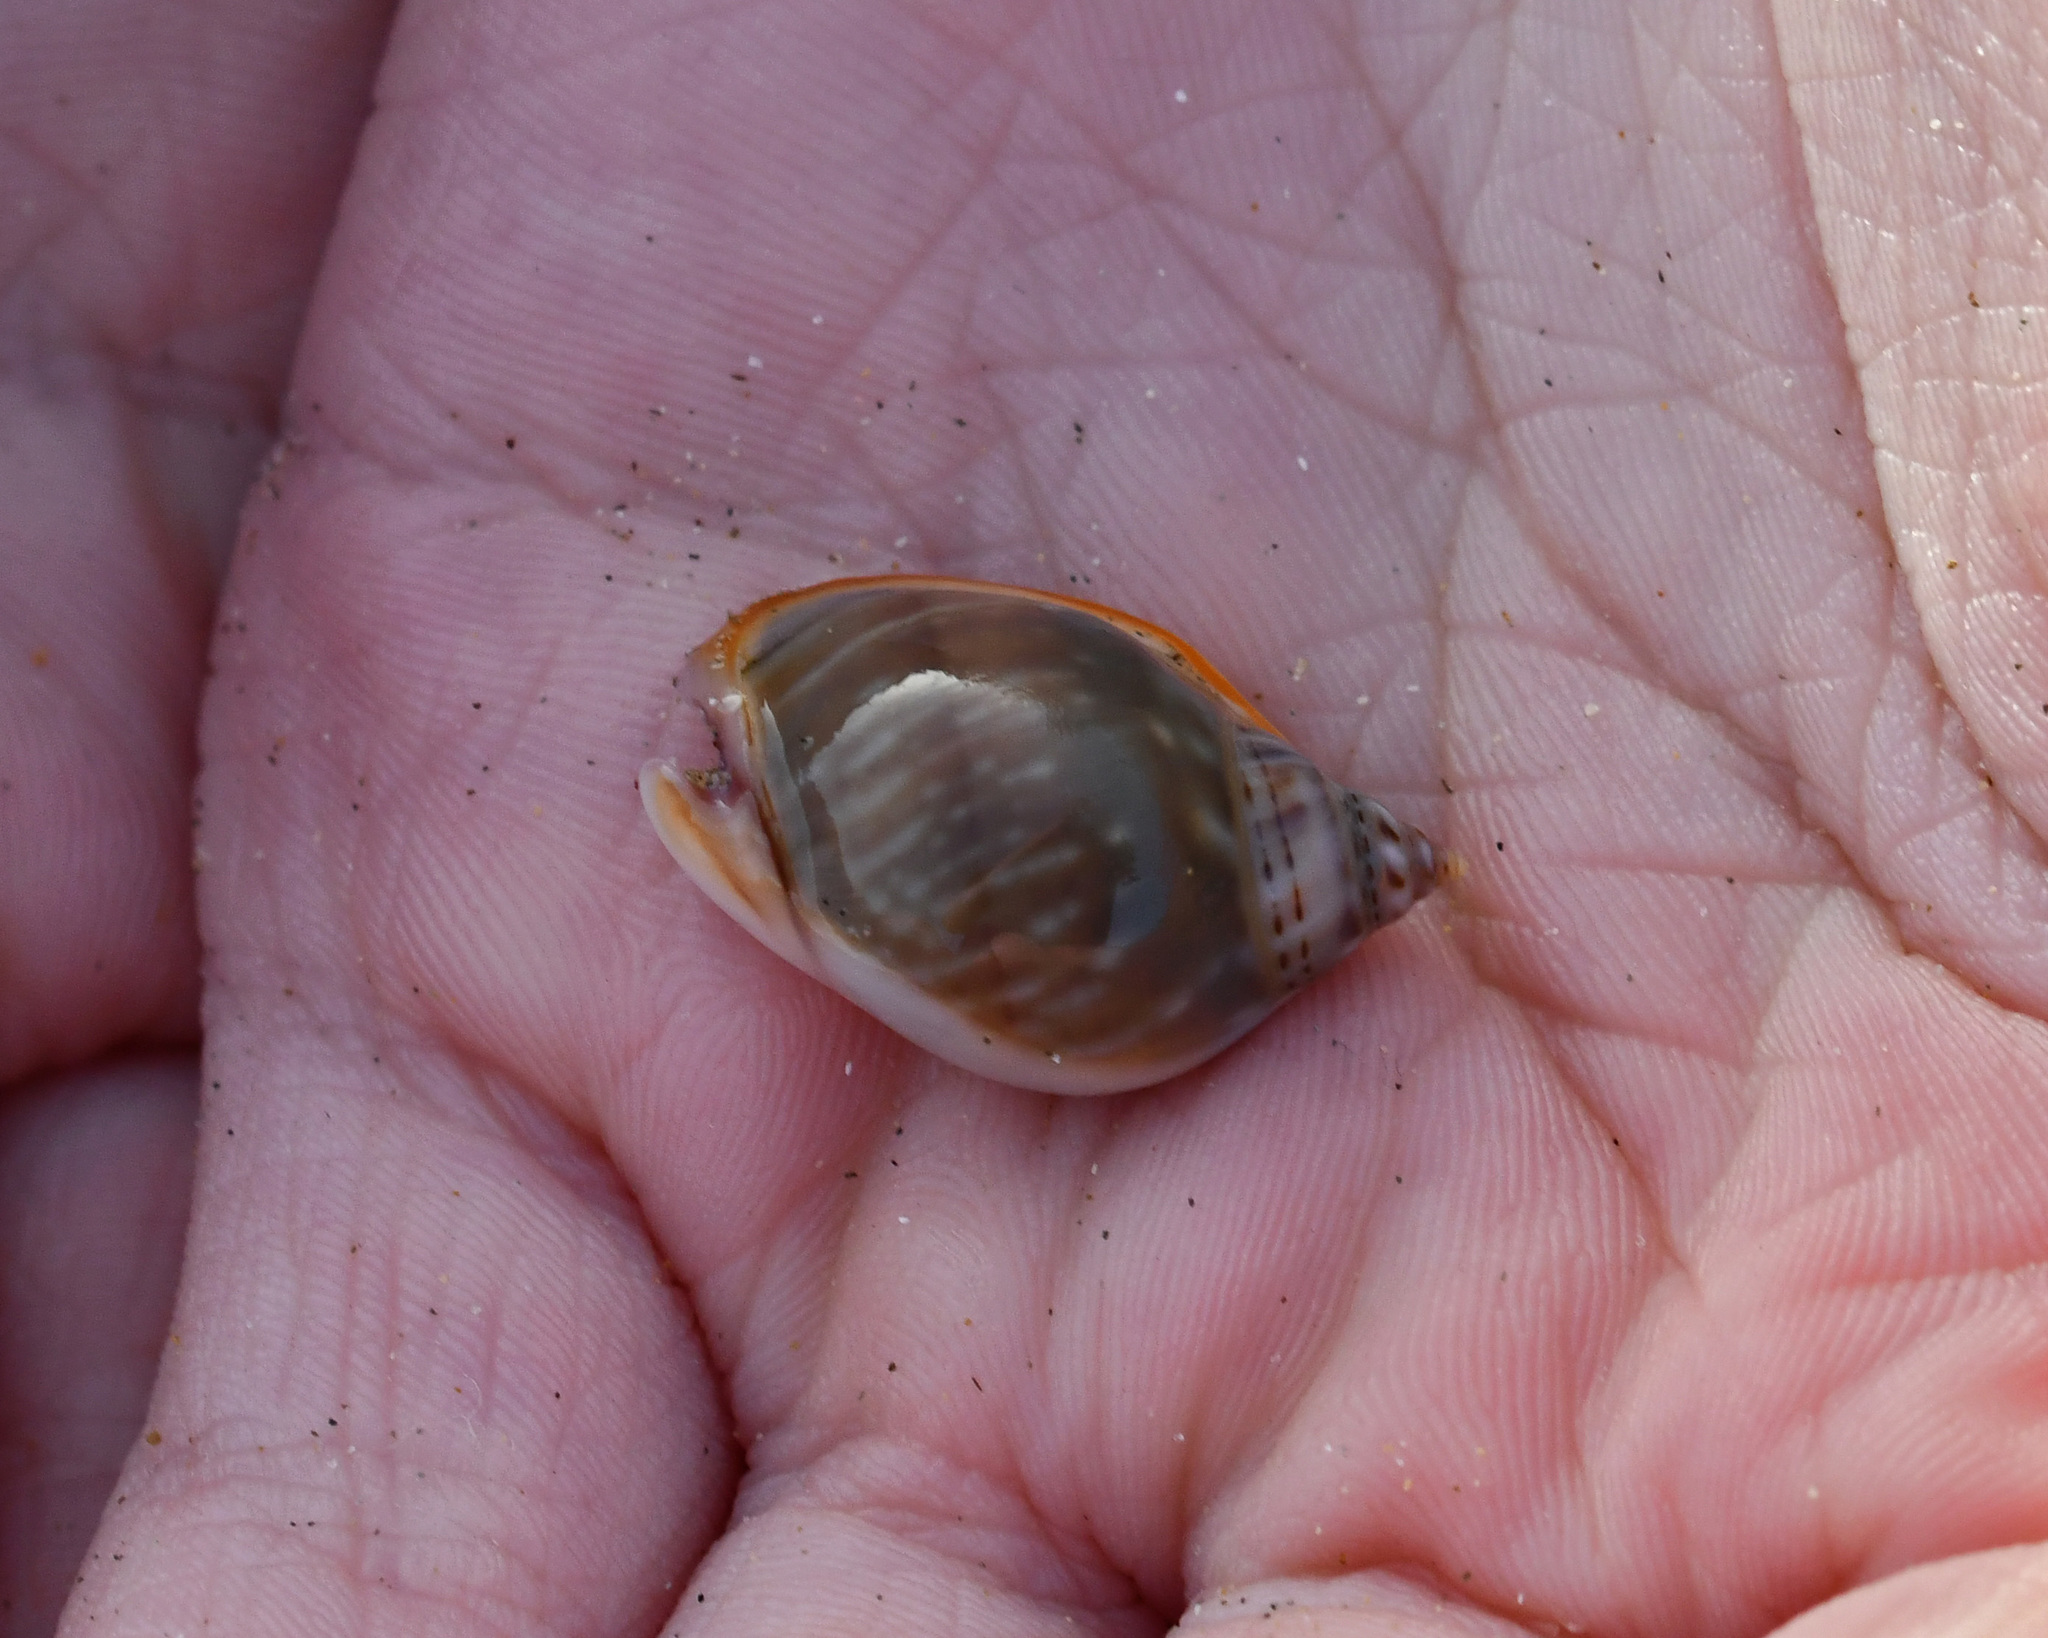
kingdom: Animalia
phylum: Mollusca
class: Gastropoda
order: Neogastropoda
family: Nassariidae
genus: Tritia
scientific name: Tritia gibbosula
